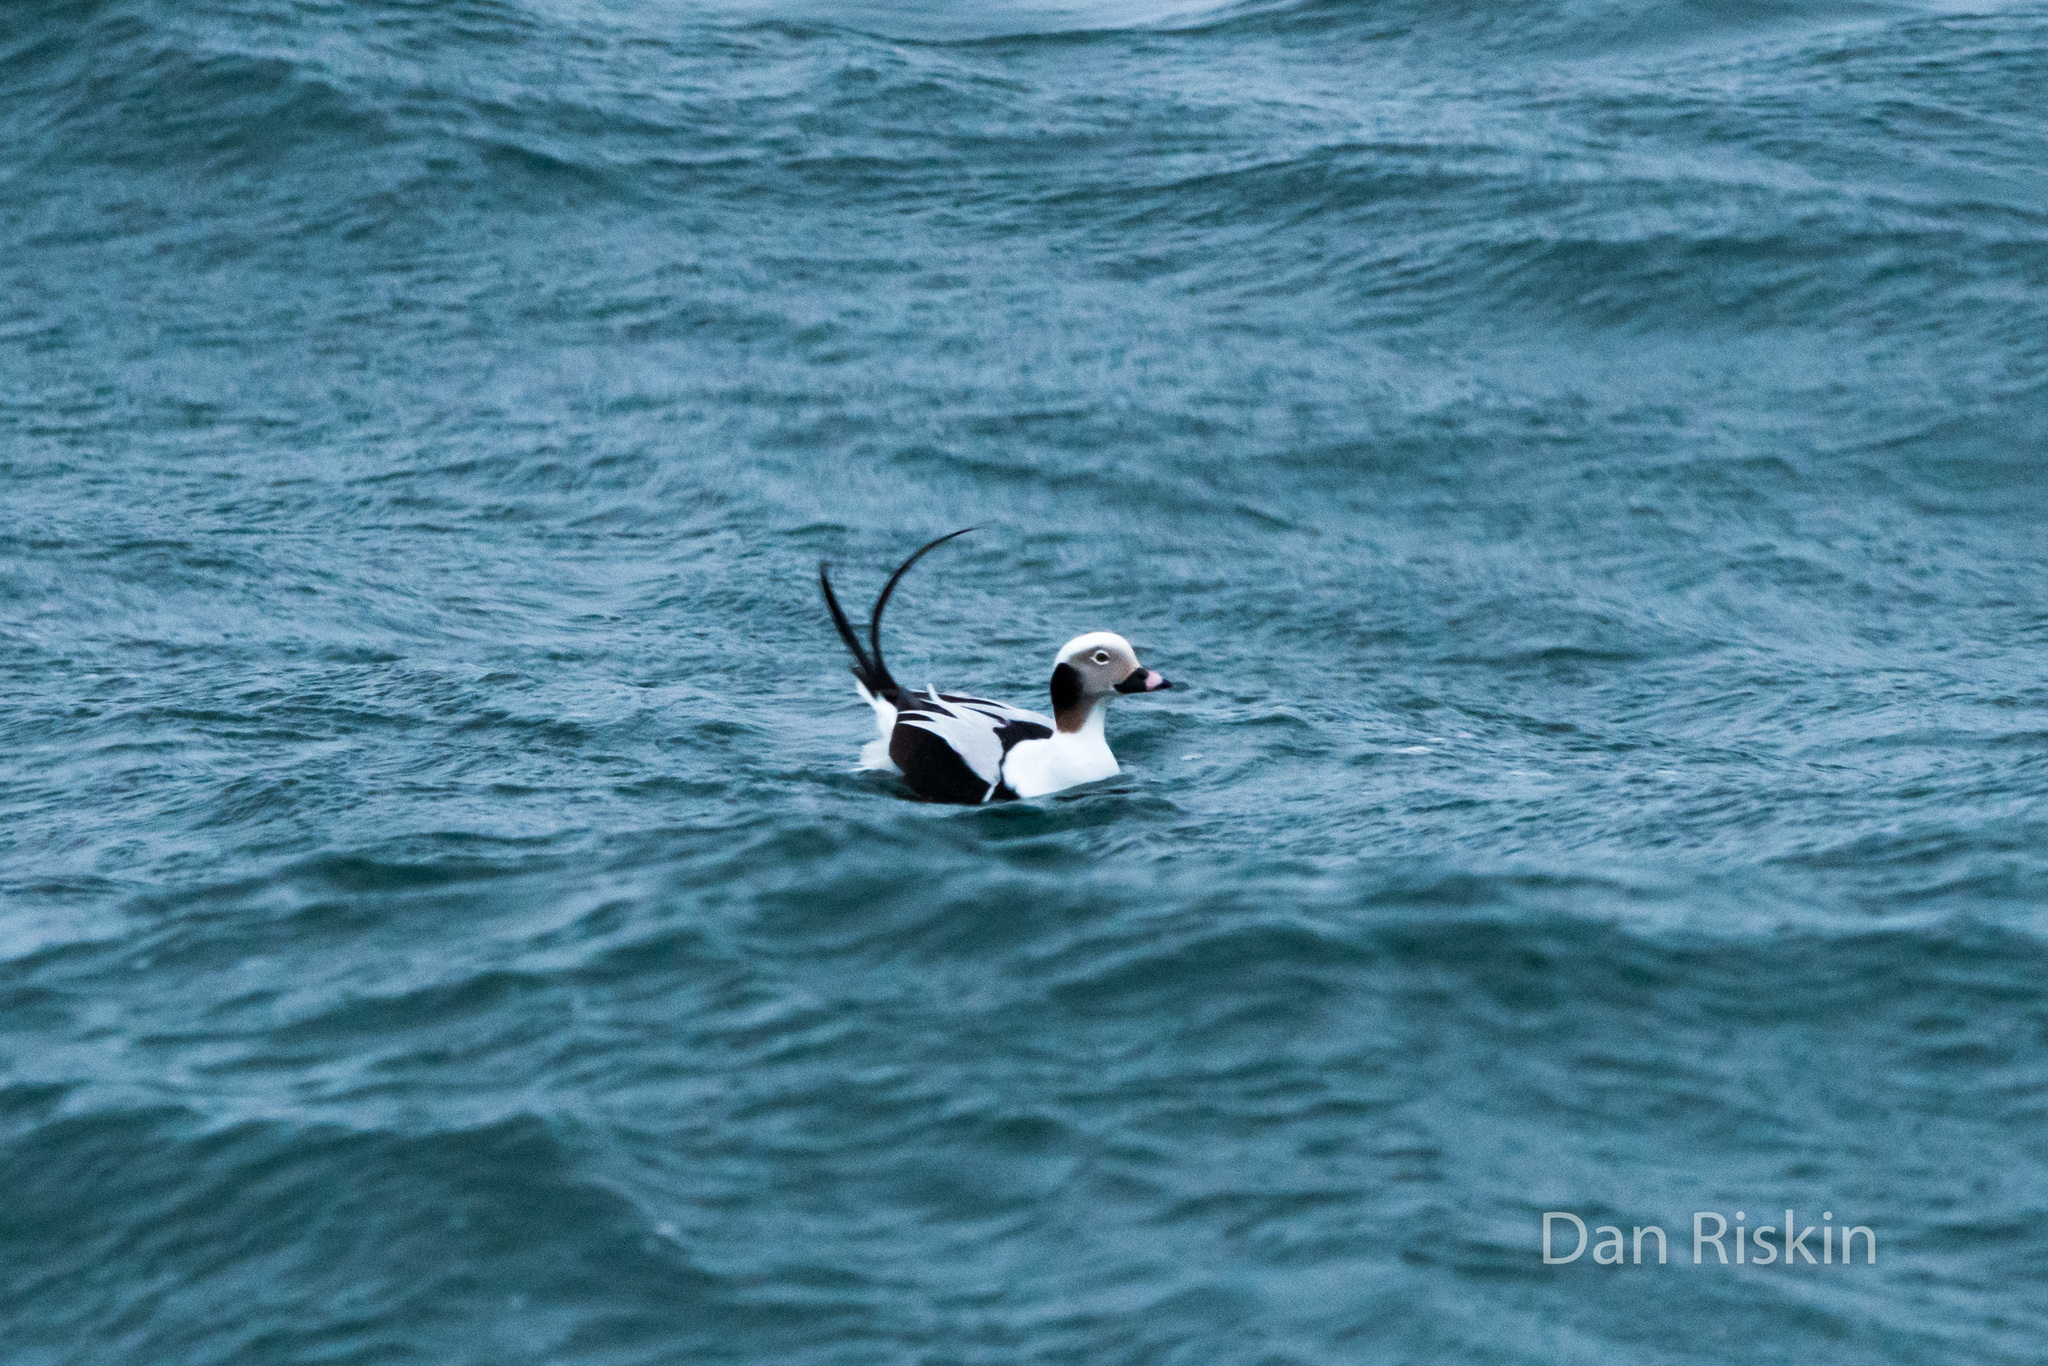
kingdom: Animalia
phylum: Chordata
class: Aves
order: Anseriformes
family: Anatidae
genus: Clangula
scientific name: Clangula hyemalis
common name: Long-tailed duck
